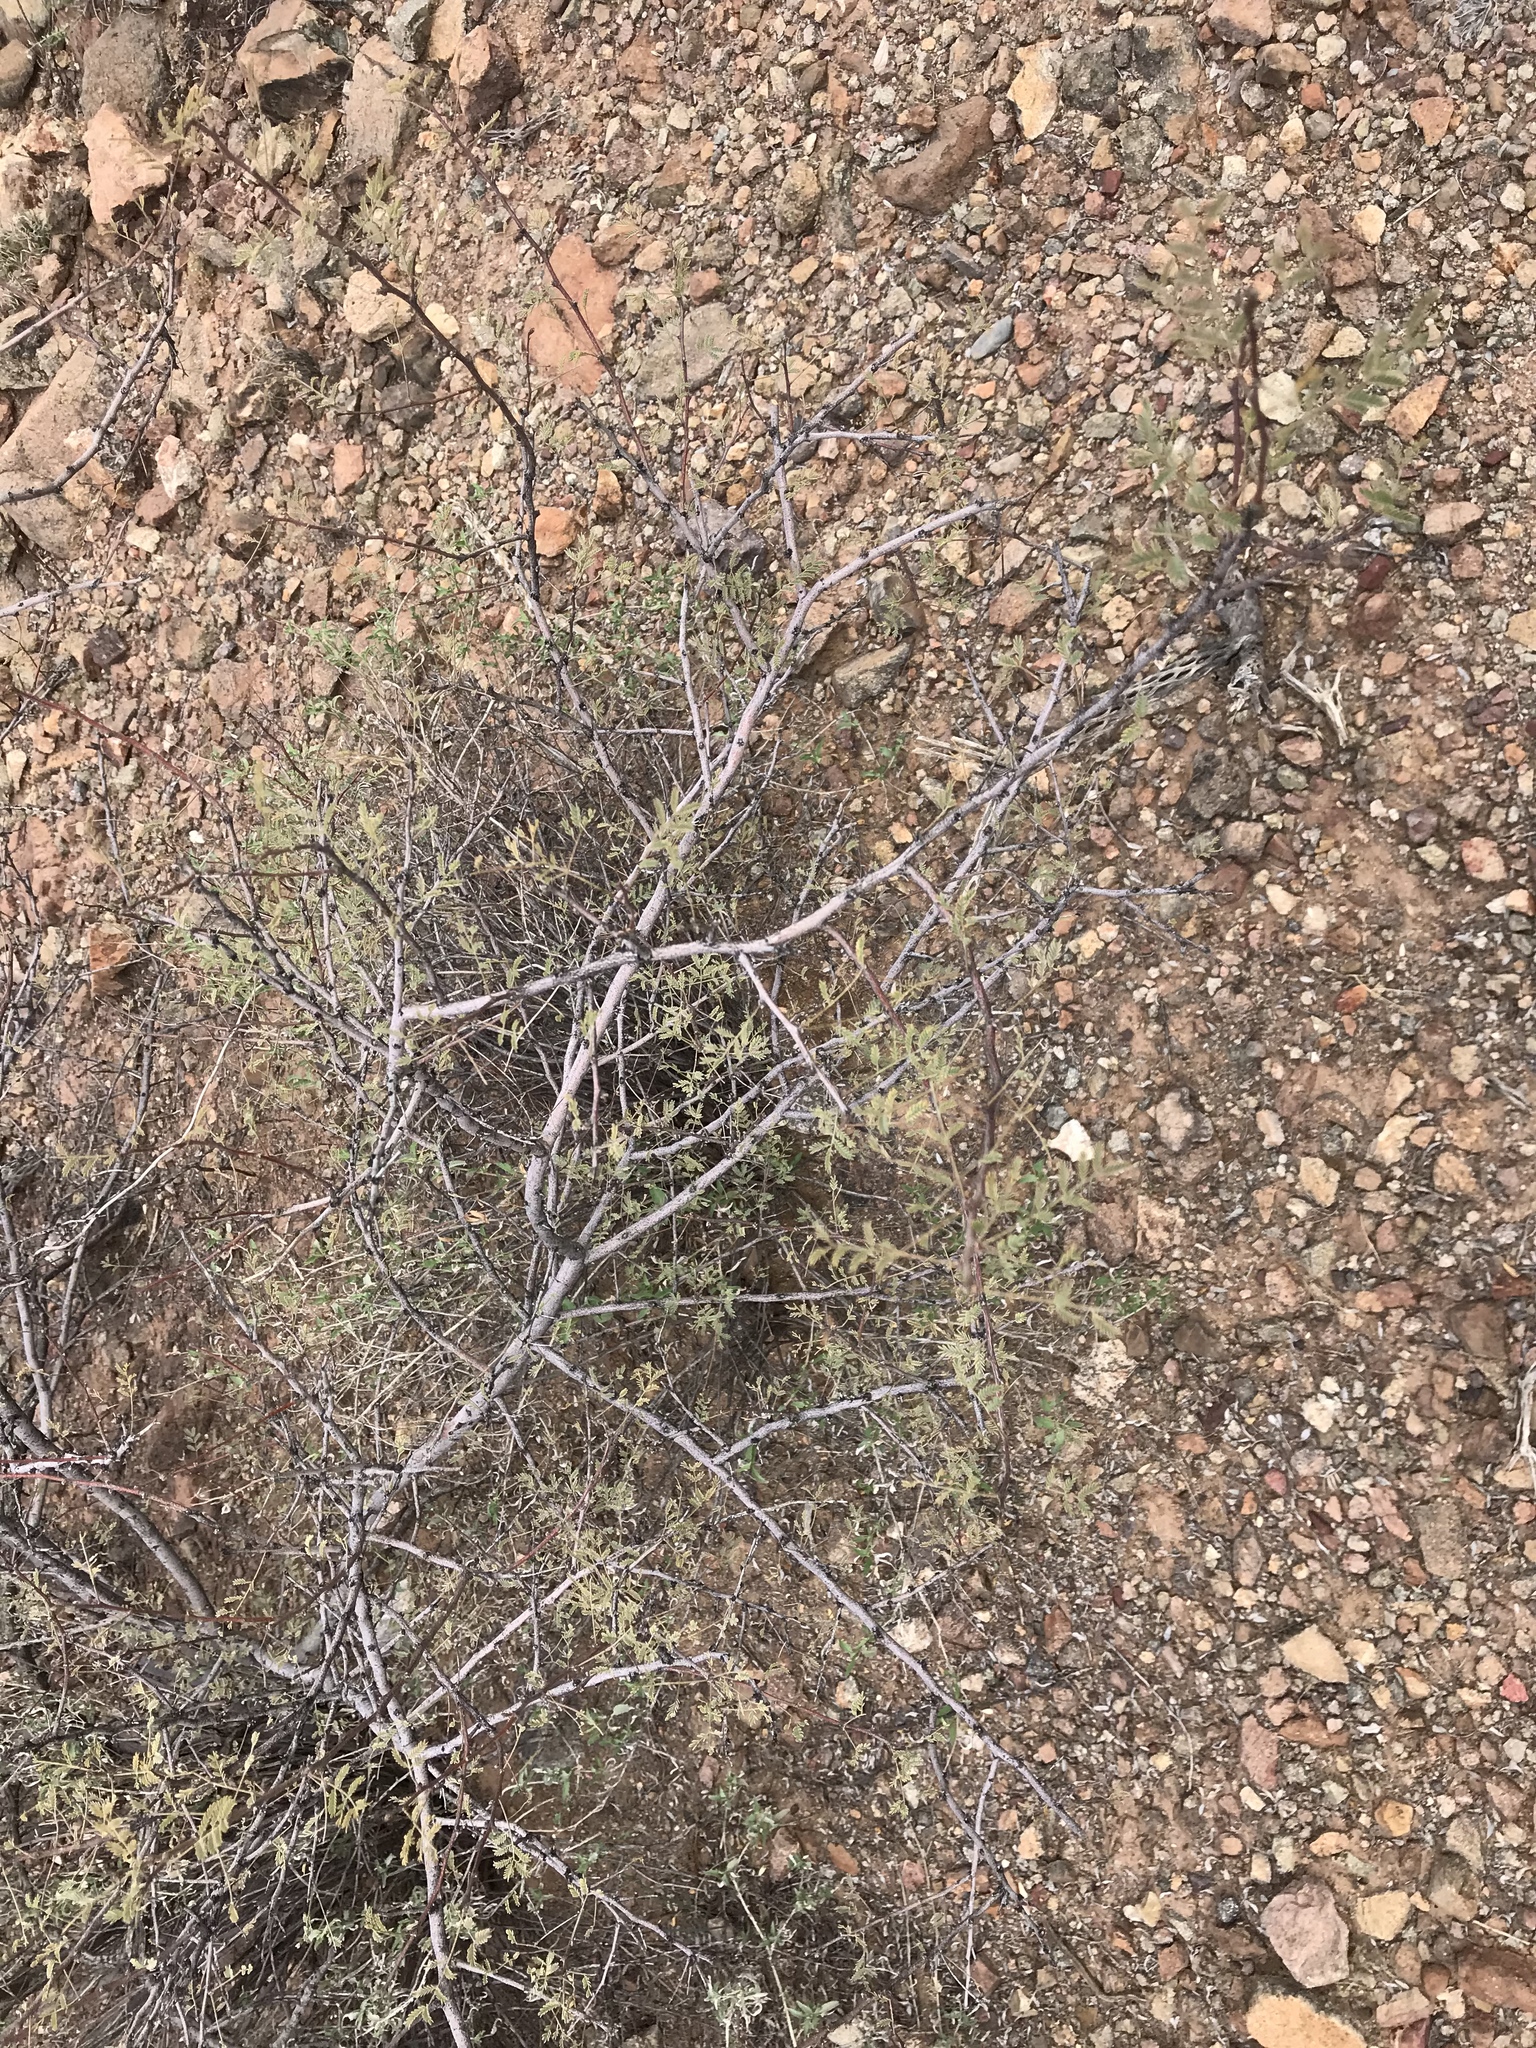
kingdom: Plantae
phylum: Tracheophyta
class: Magnoliopsida
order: Fabales
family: Fabaceae
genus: Vachellia
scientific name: Vachellia constricta
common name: Mescat acacia
